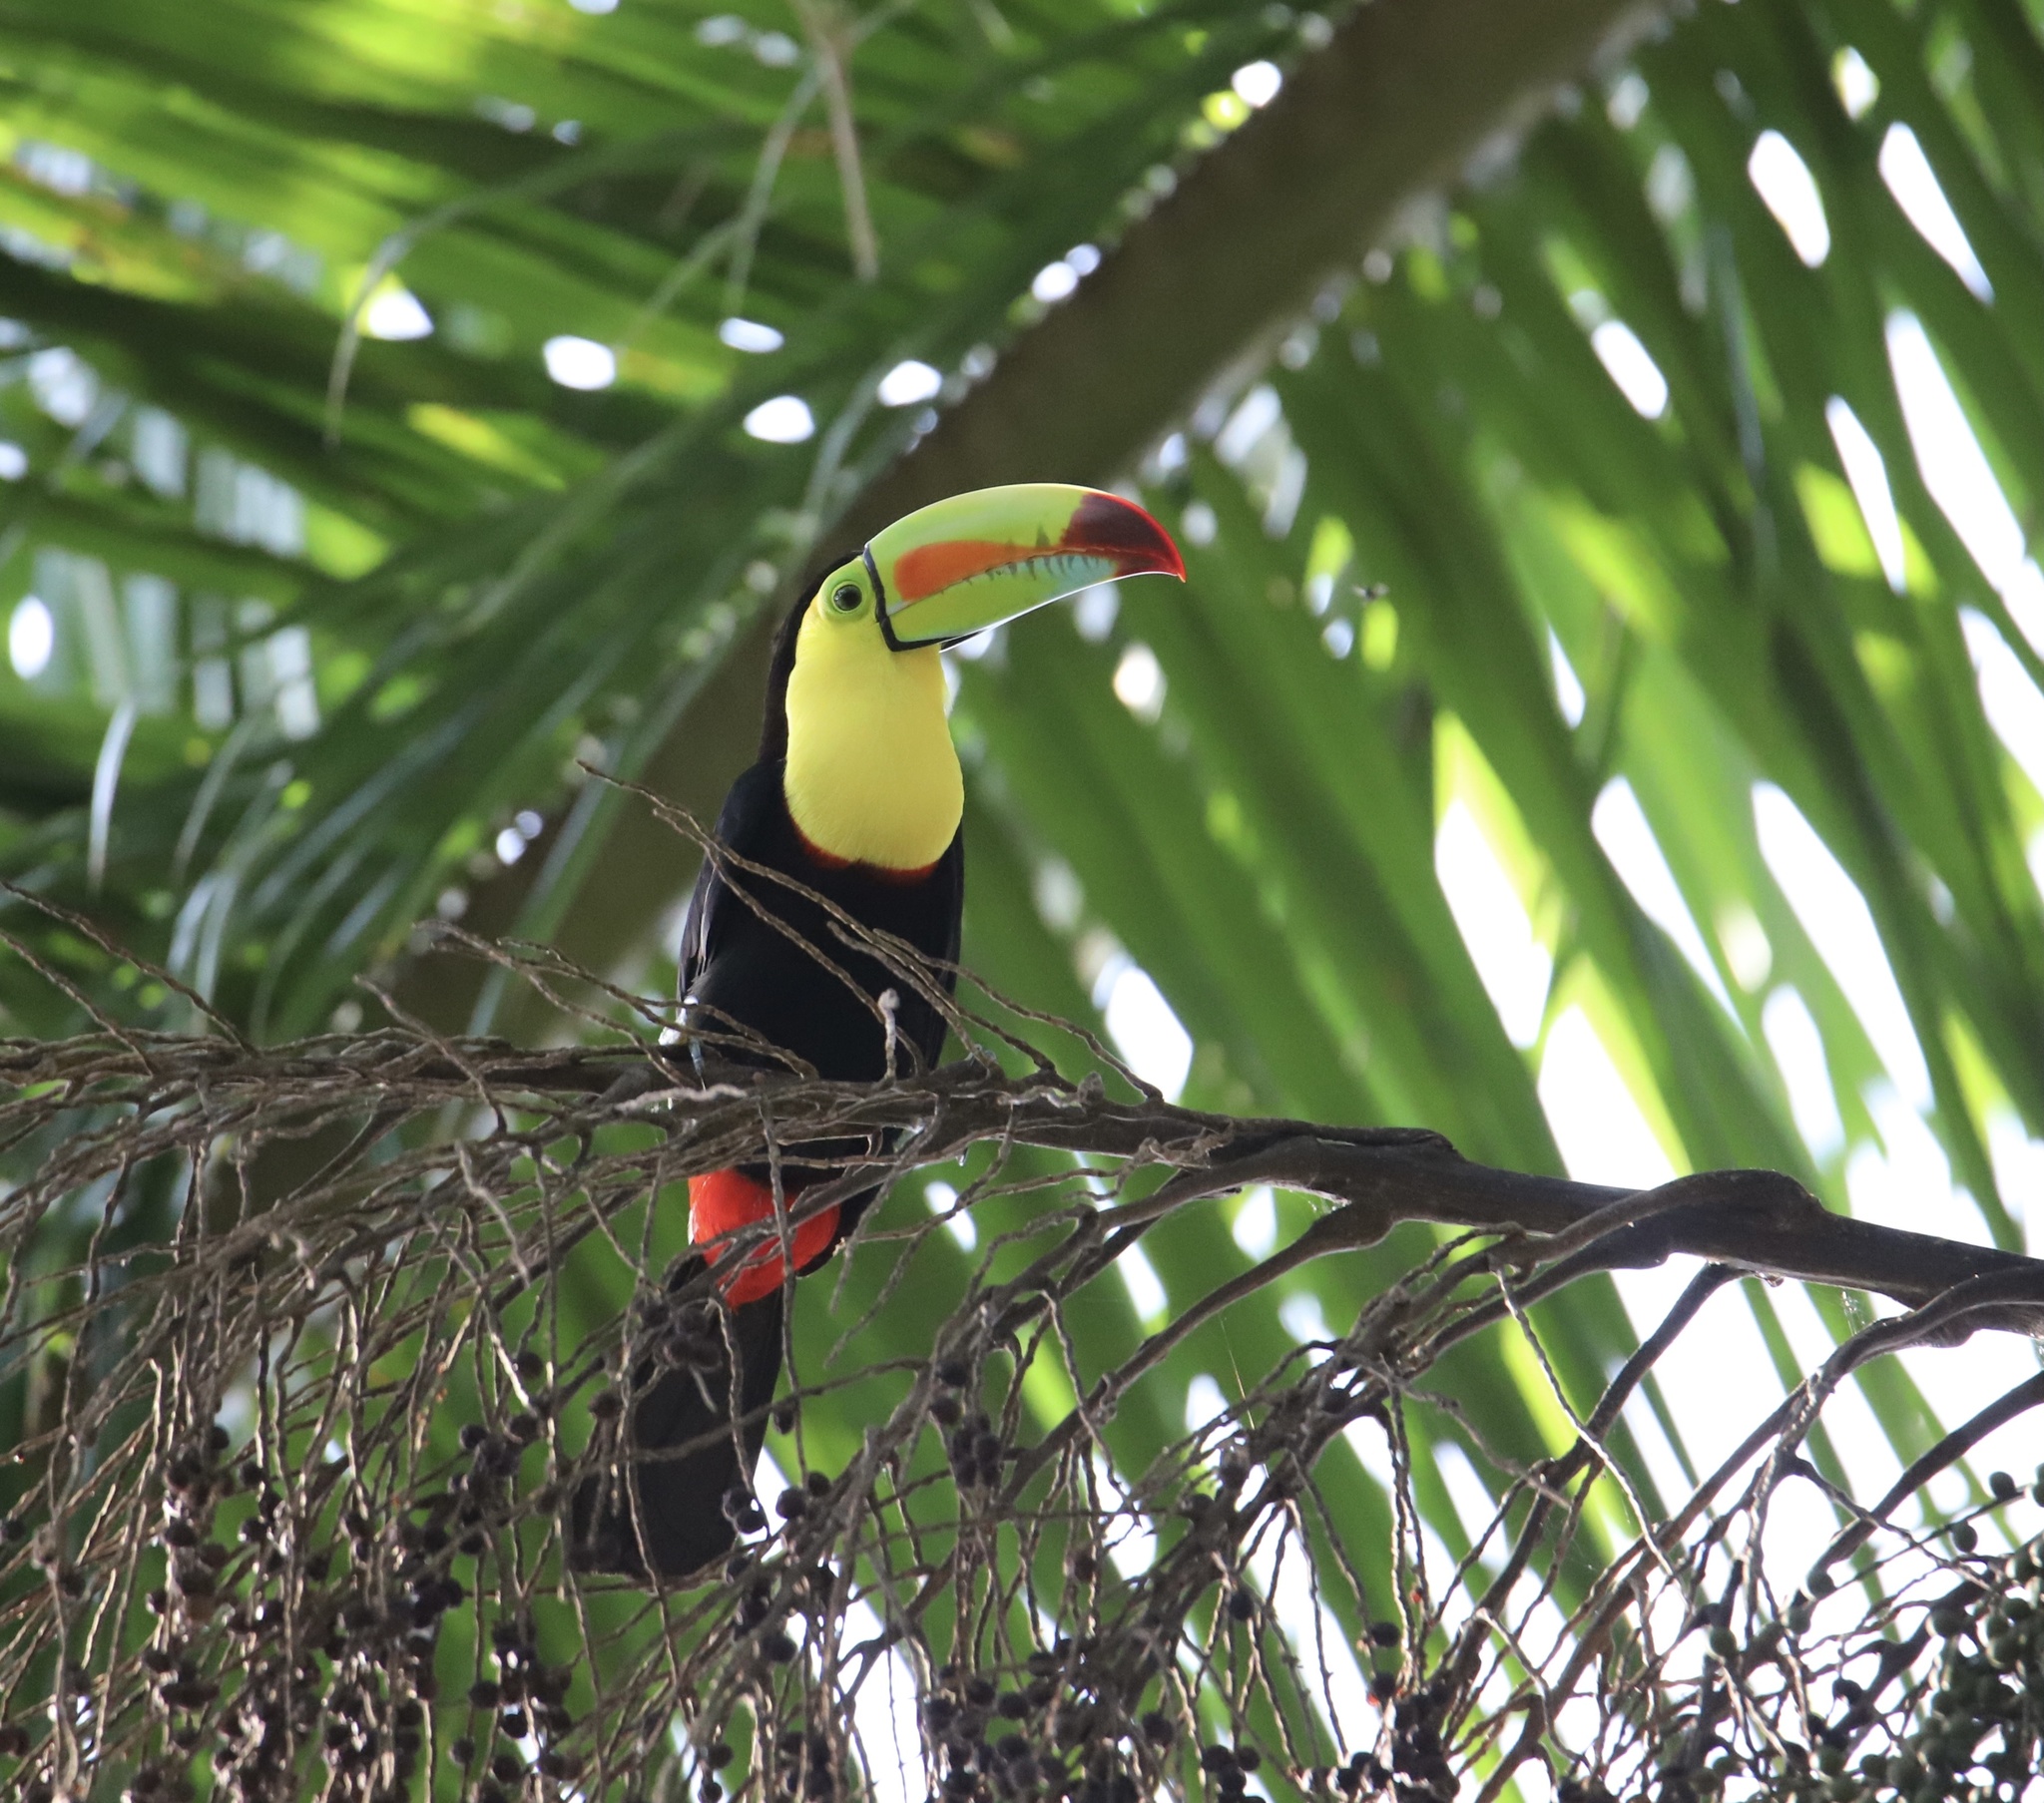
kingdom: Animalia
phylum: Chordata
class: Aves
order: Piciformes
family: Ramphastidae
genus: Ramphastos
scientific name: Ramphastos sulfuratus
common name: Keel-billed toucan
